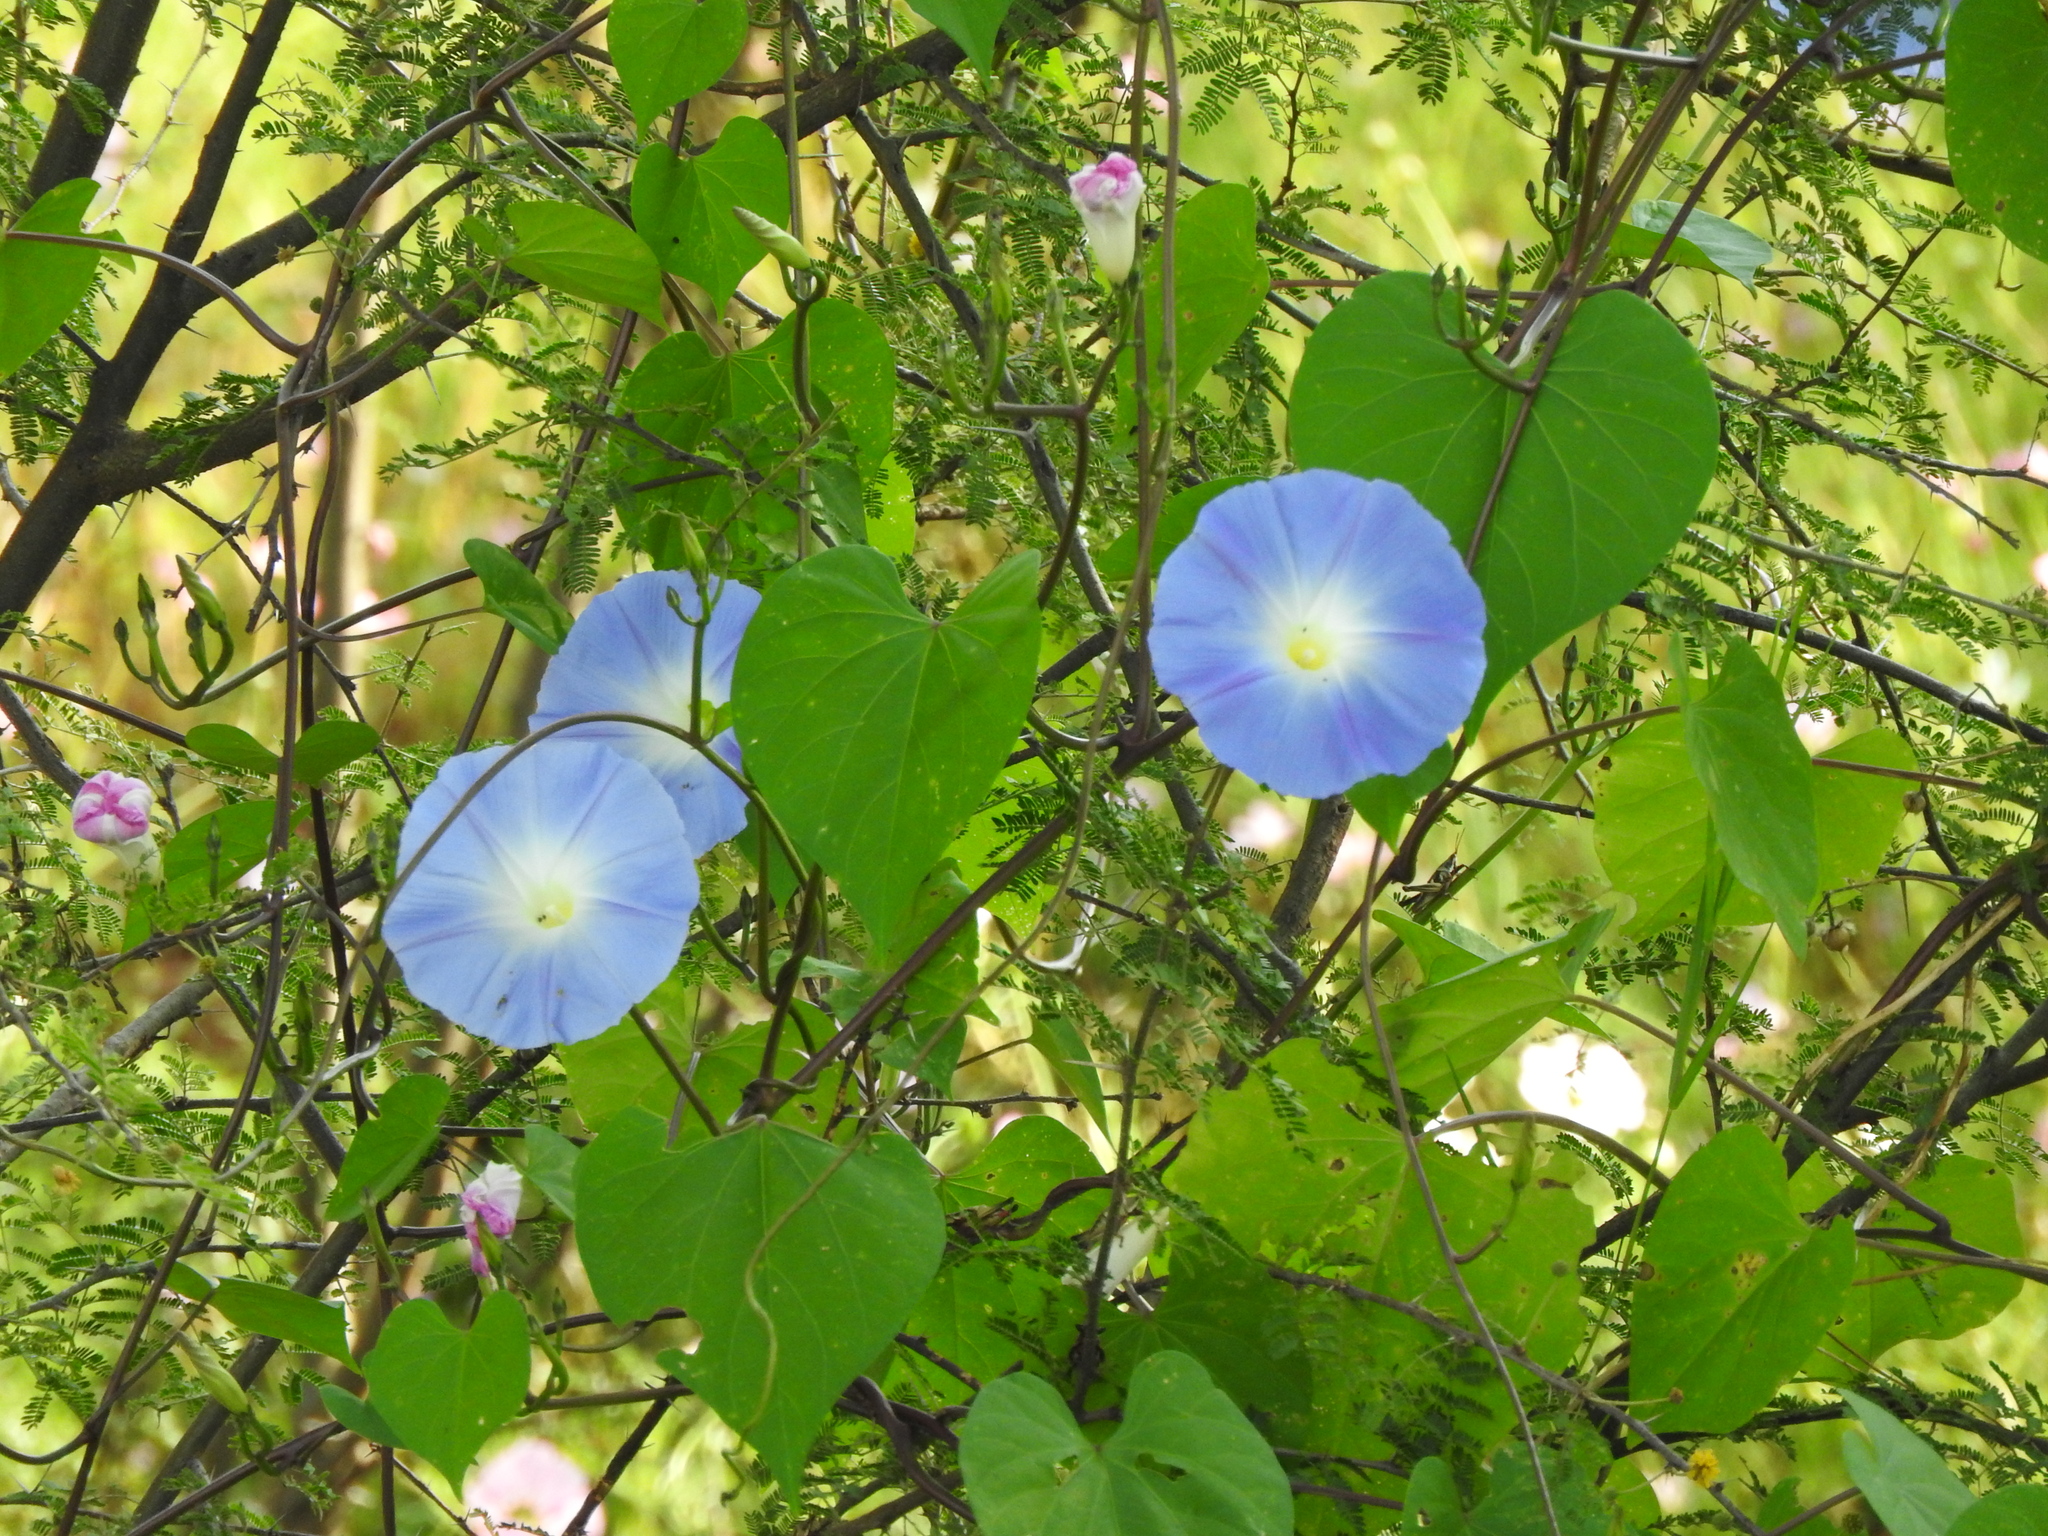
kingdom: Plantae
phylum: Tracheophyta
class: Magnoliopsida
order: Solanales
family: Convolvulaceae
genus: Ipomoea
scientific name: Ipomoea tricolor
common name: Morning-glory
